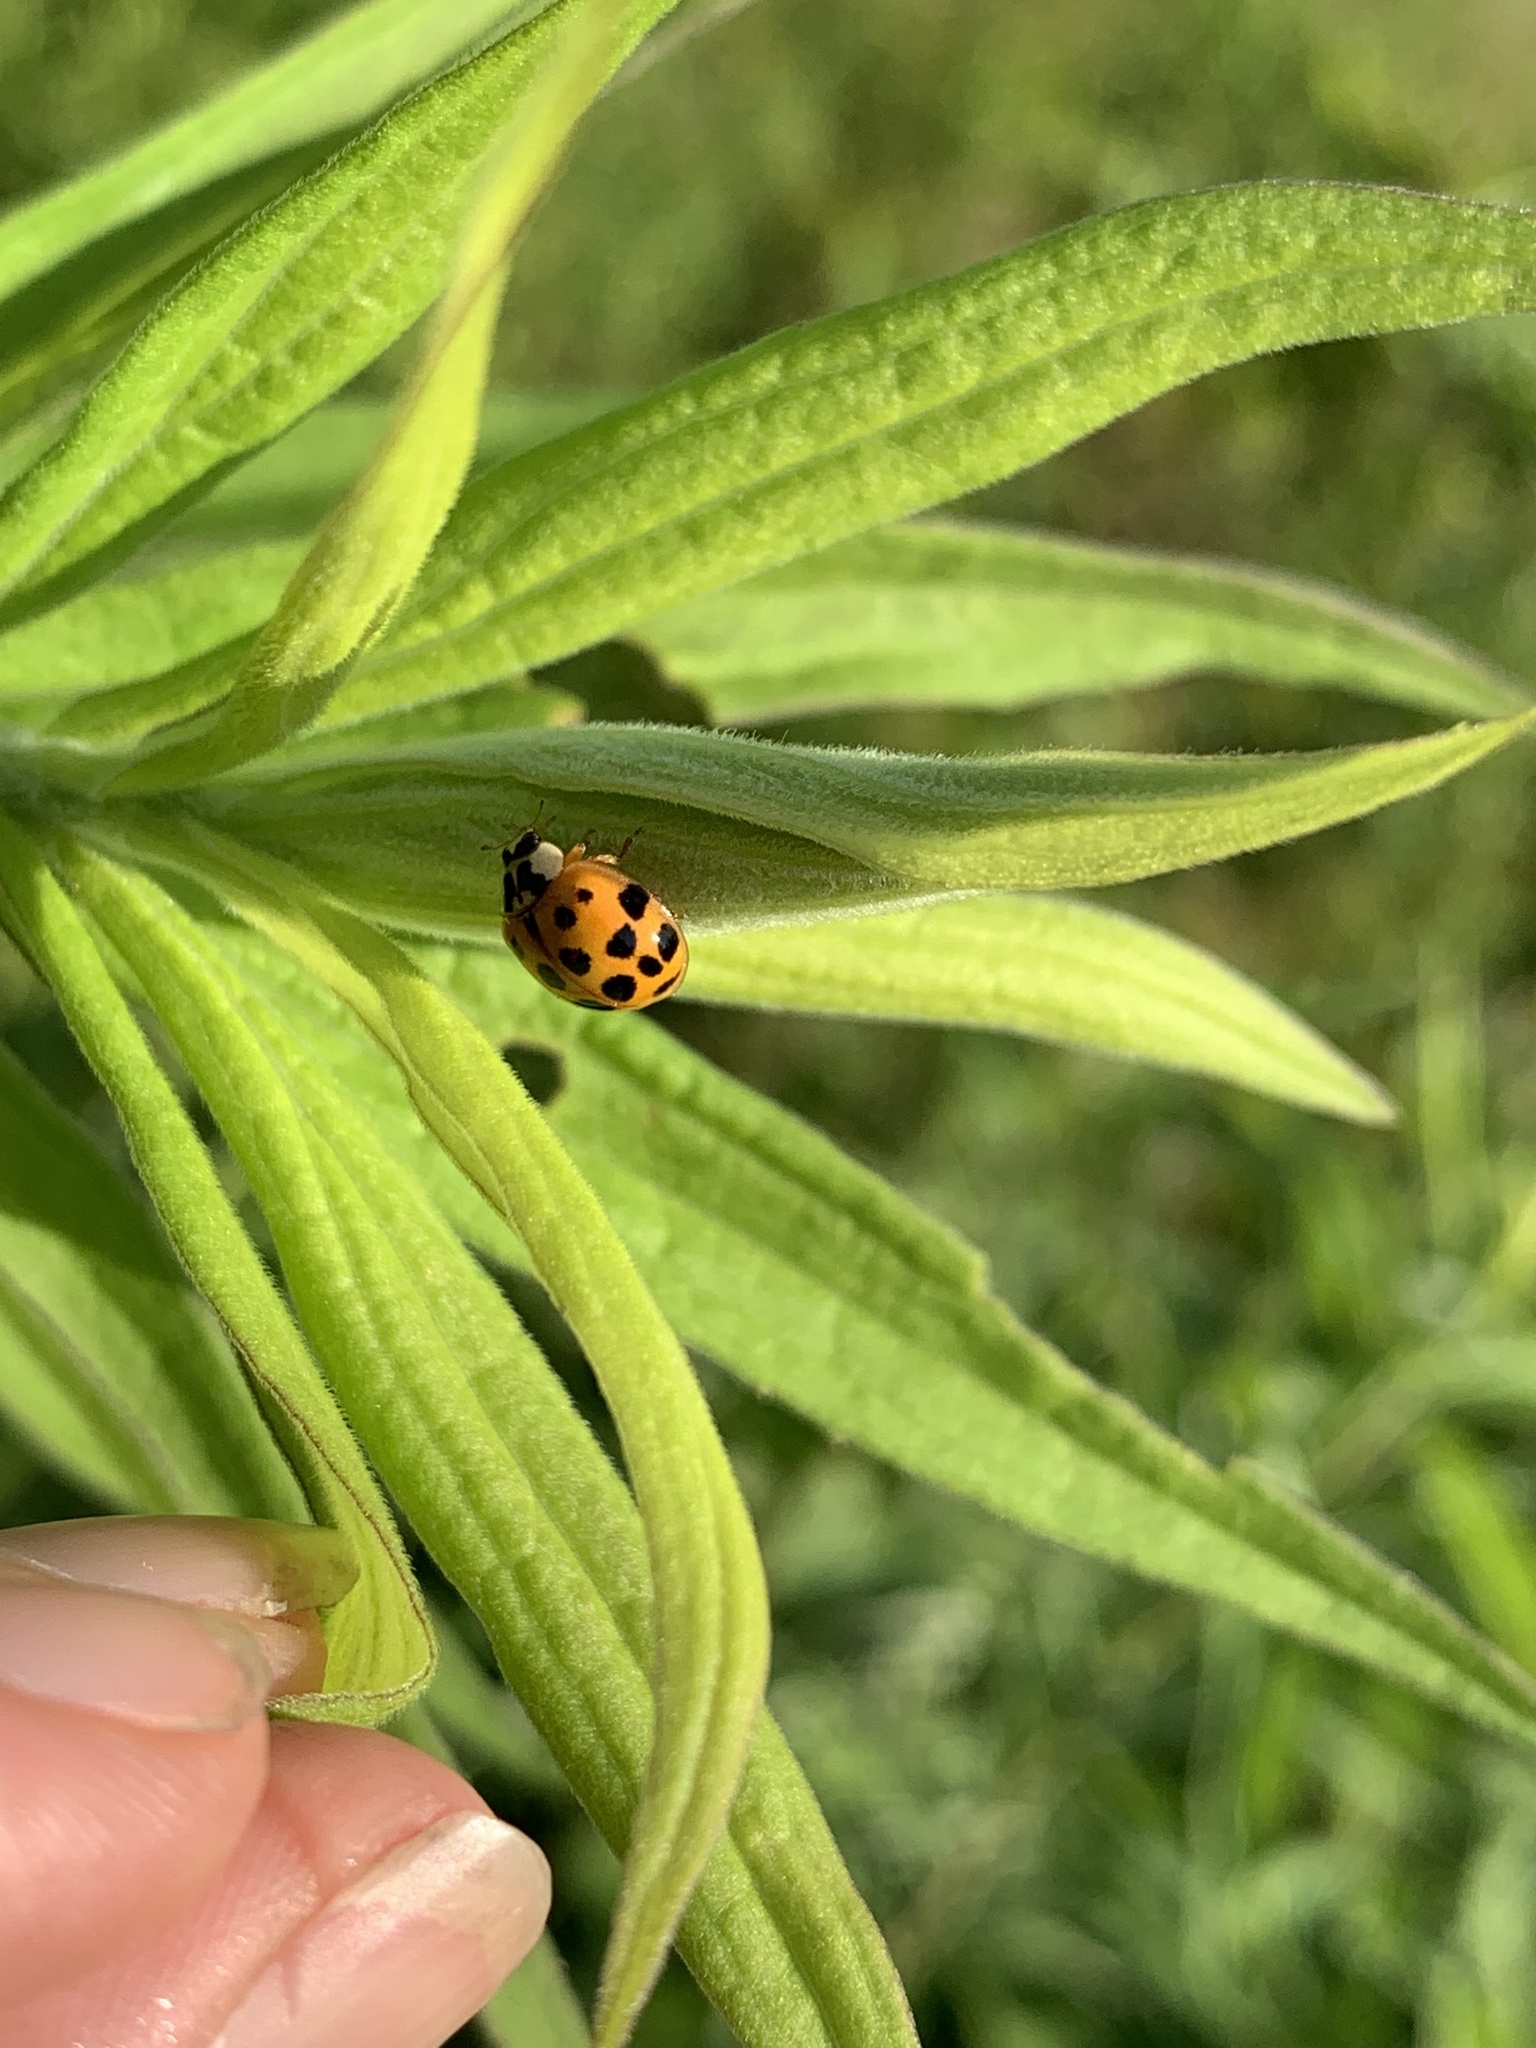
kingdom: Animalia
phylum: Arthropoda
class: Insecta
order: Coleoptera
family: Coccinellidae
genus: Harmonia
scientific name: Harmonia axyridis
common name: Harlequin ladybird
